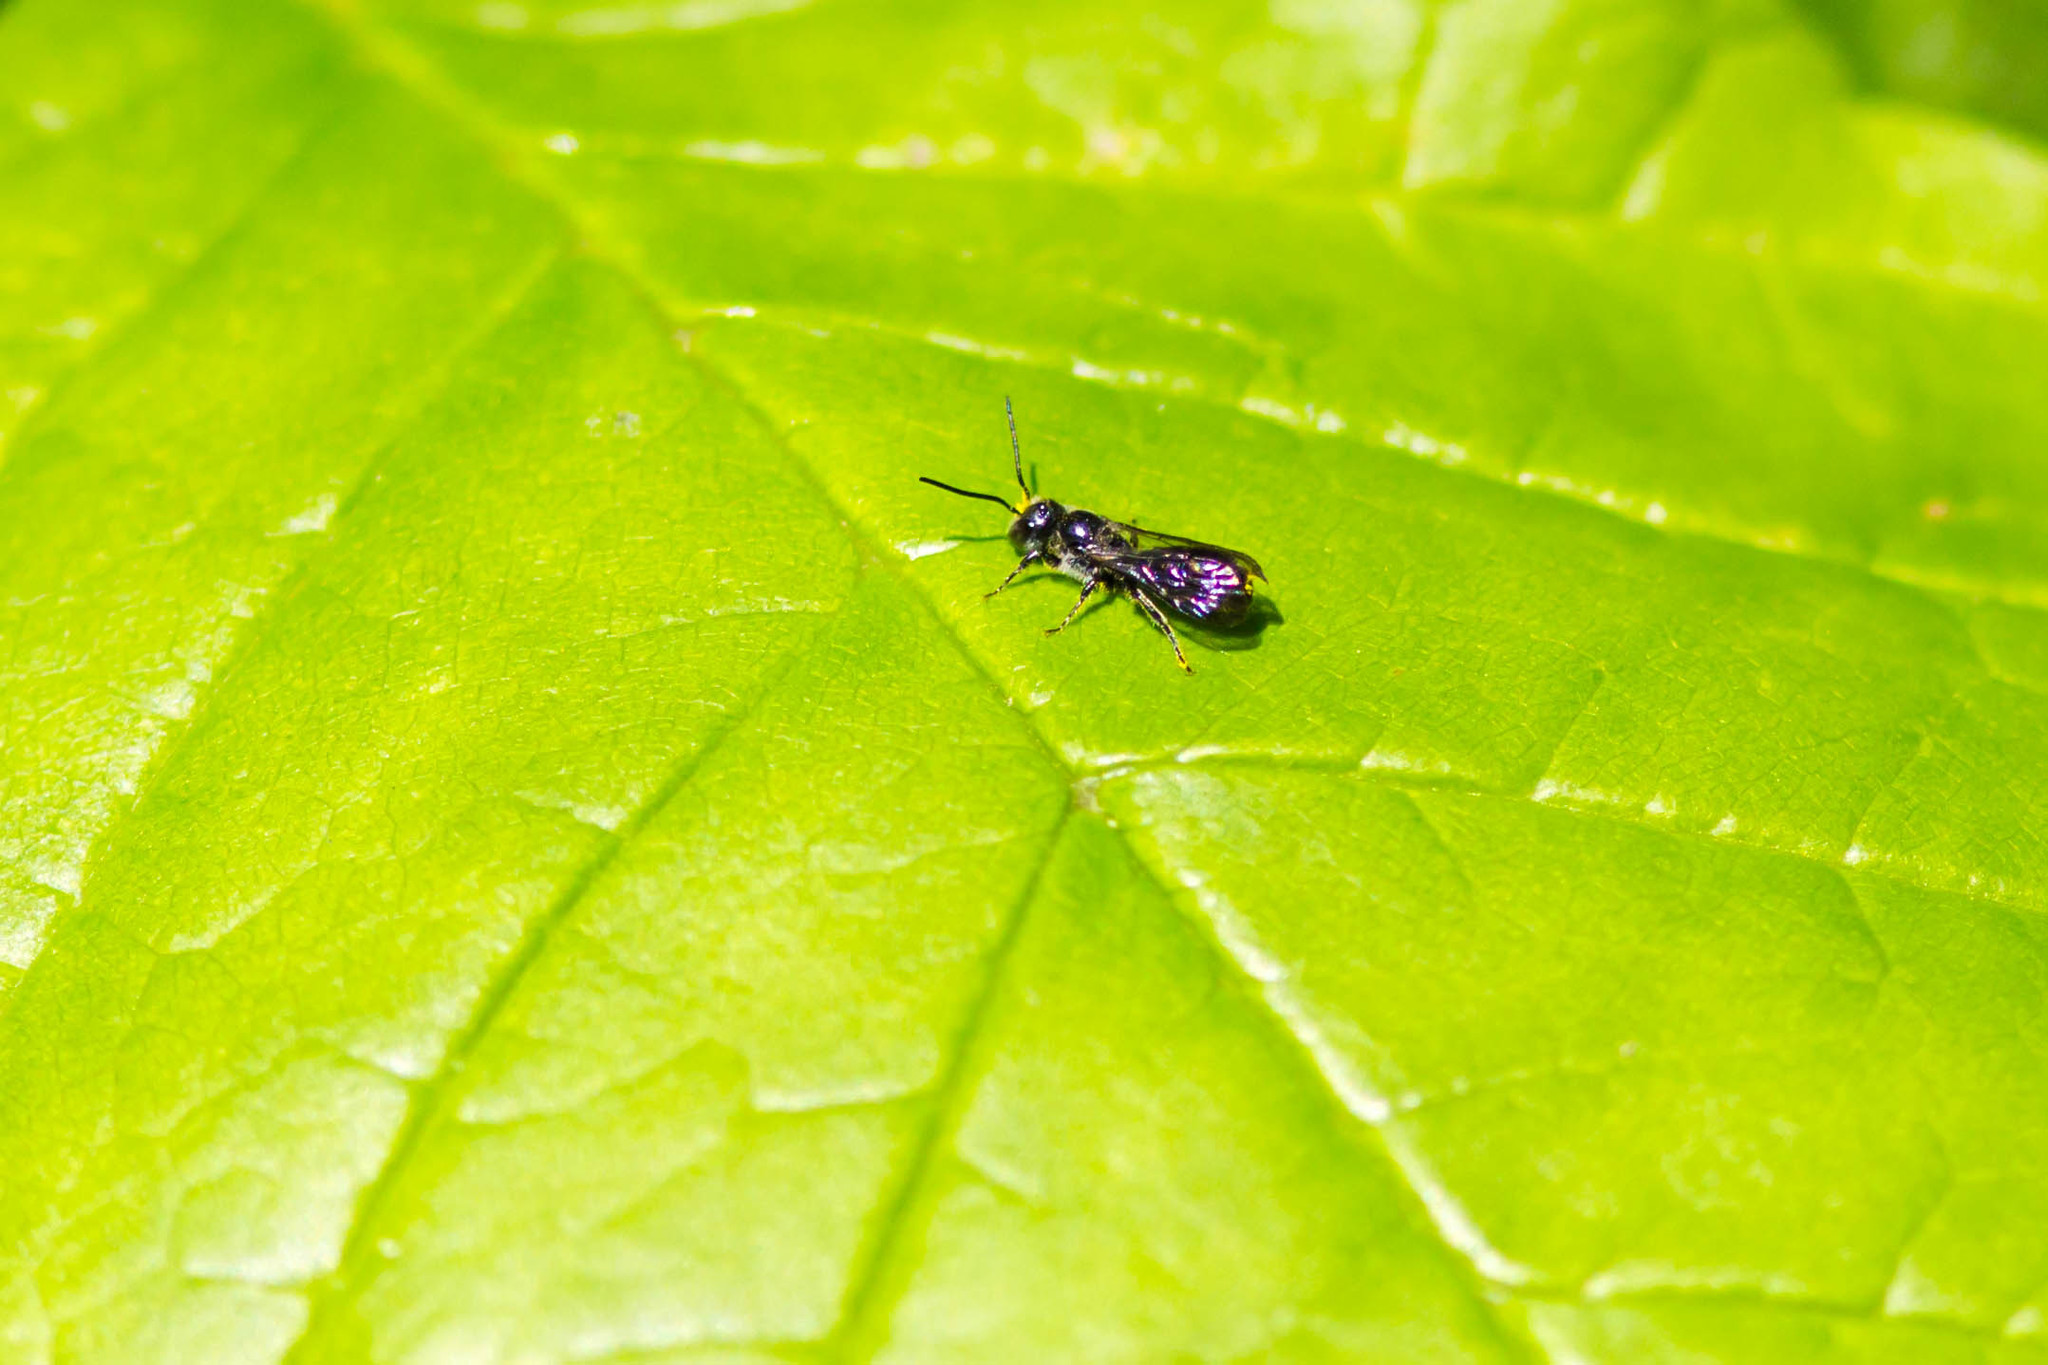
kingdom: Animalia
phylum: Arthropoda
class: Insecta
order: Hymenoptera
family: Megachilidae
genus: Chelostoma
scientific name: Chelostoma philadelphi
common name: Mock-orange scissor bee
